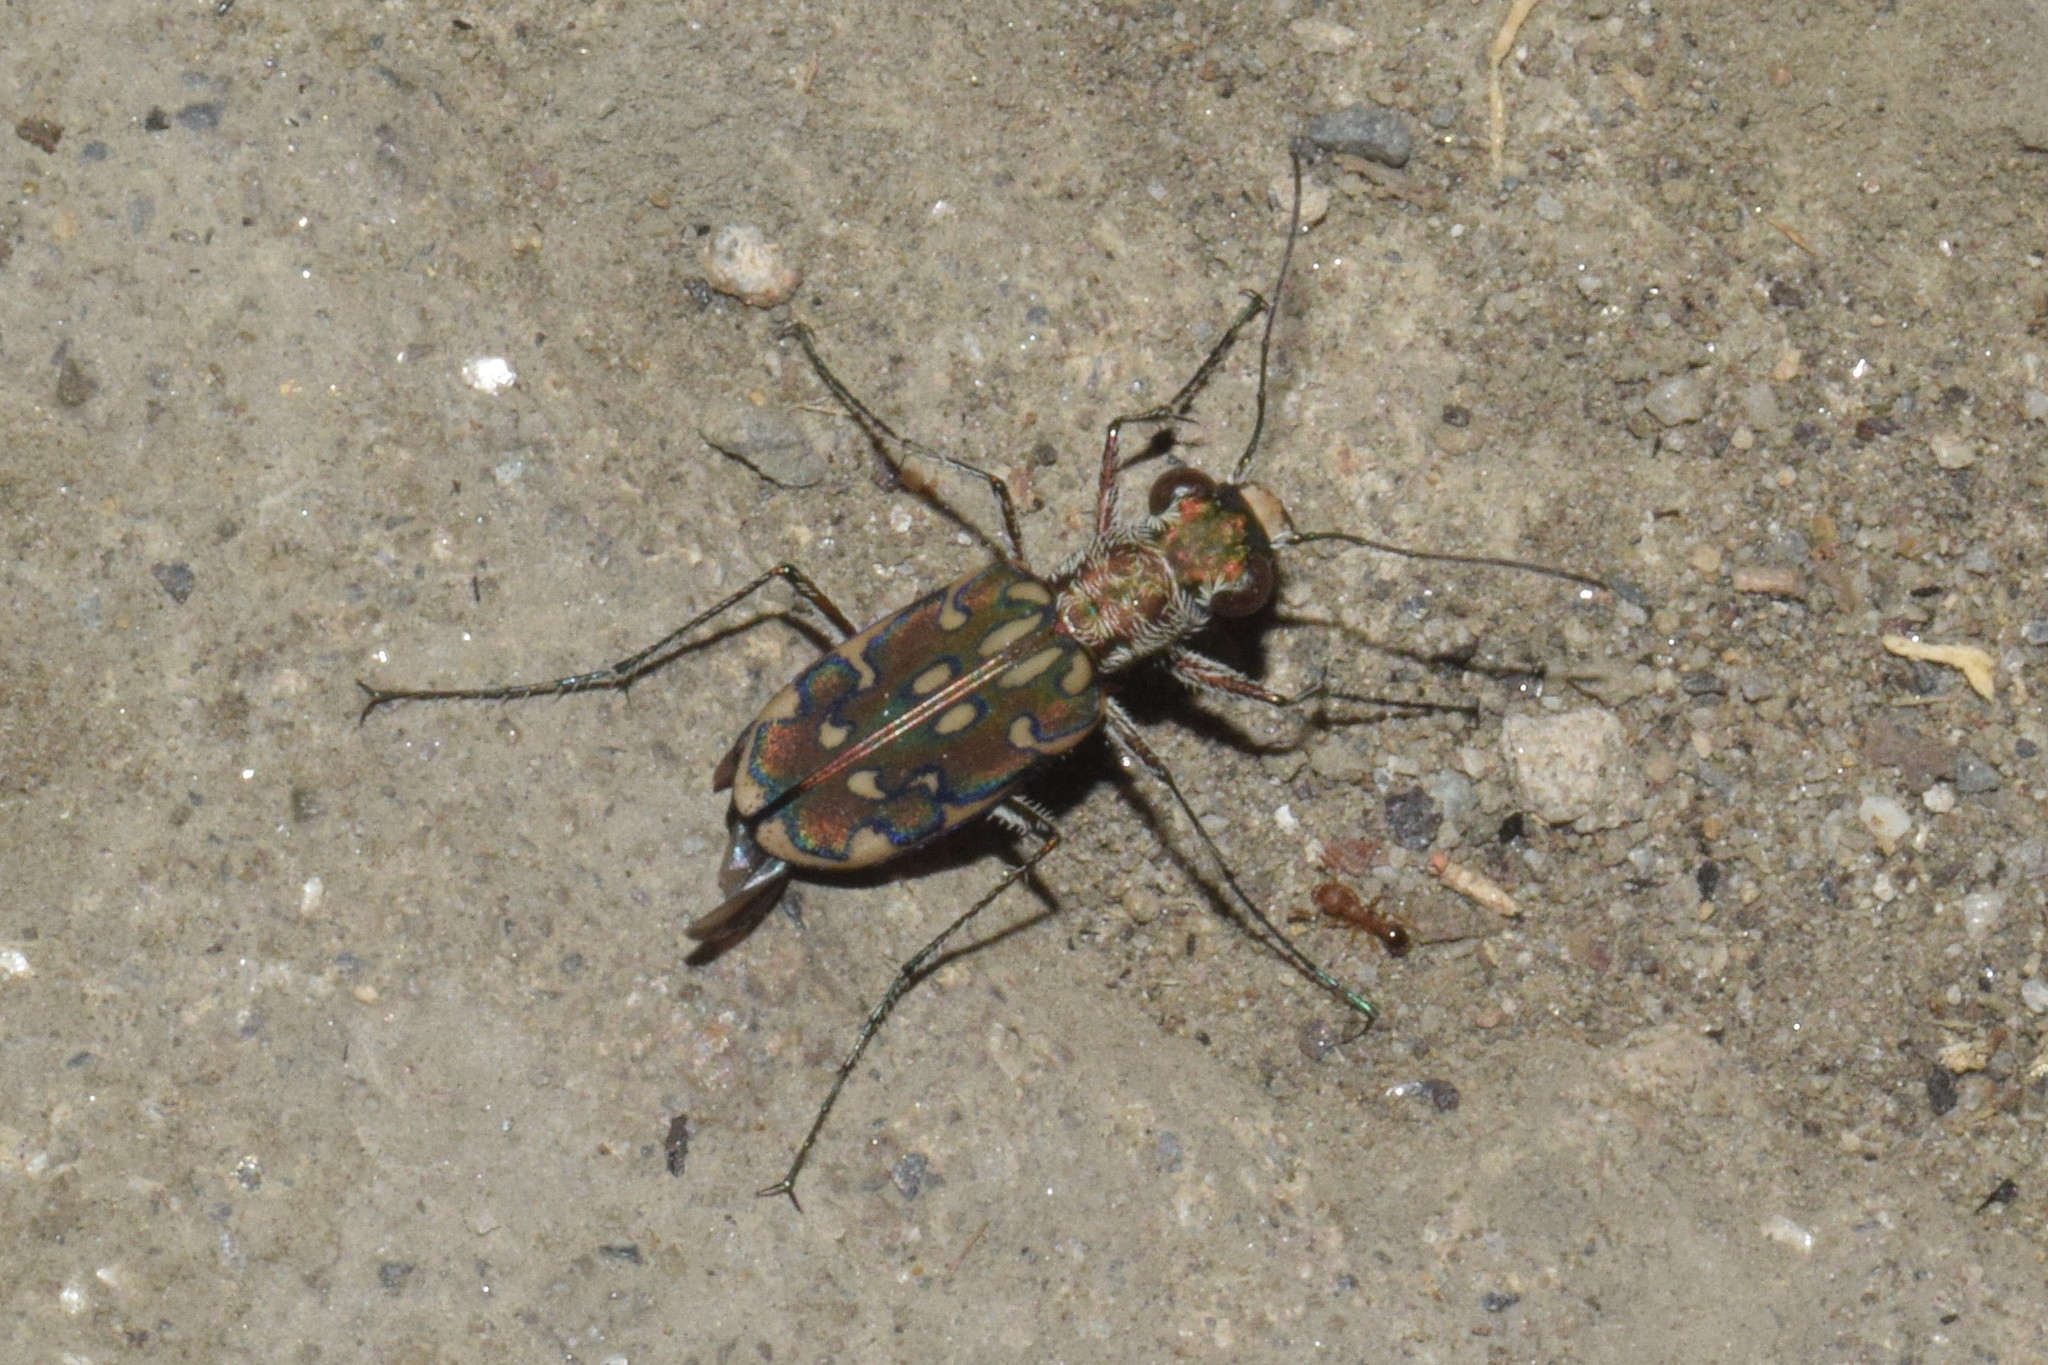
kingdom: Animalia
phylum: Arthropoda
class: Insecta
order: Coleoptera
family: Carabidae
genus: Lophyra
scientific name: Lophyra cancellata
